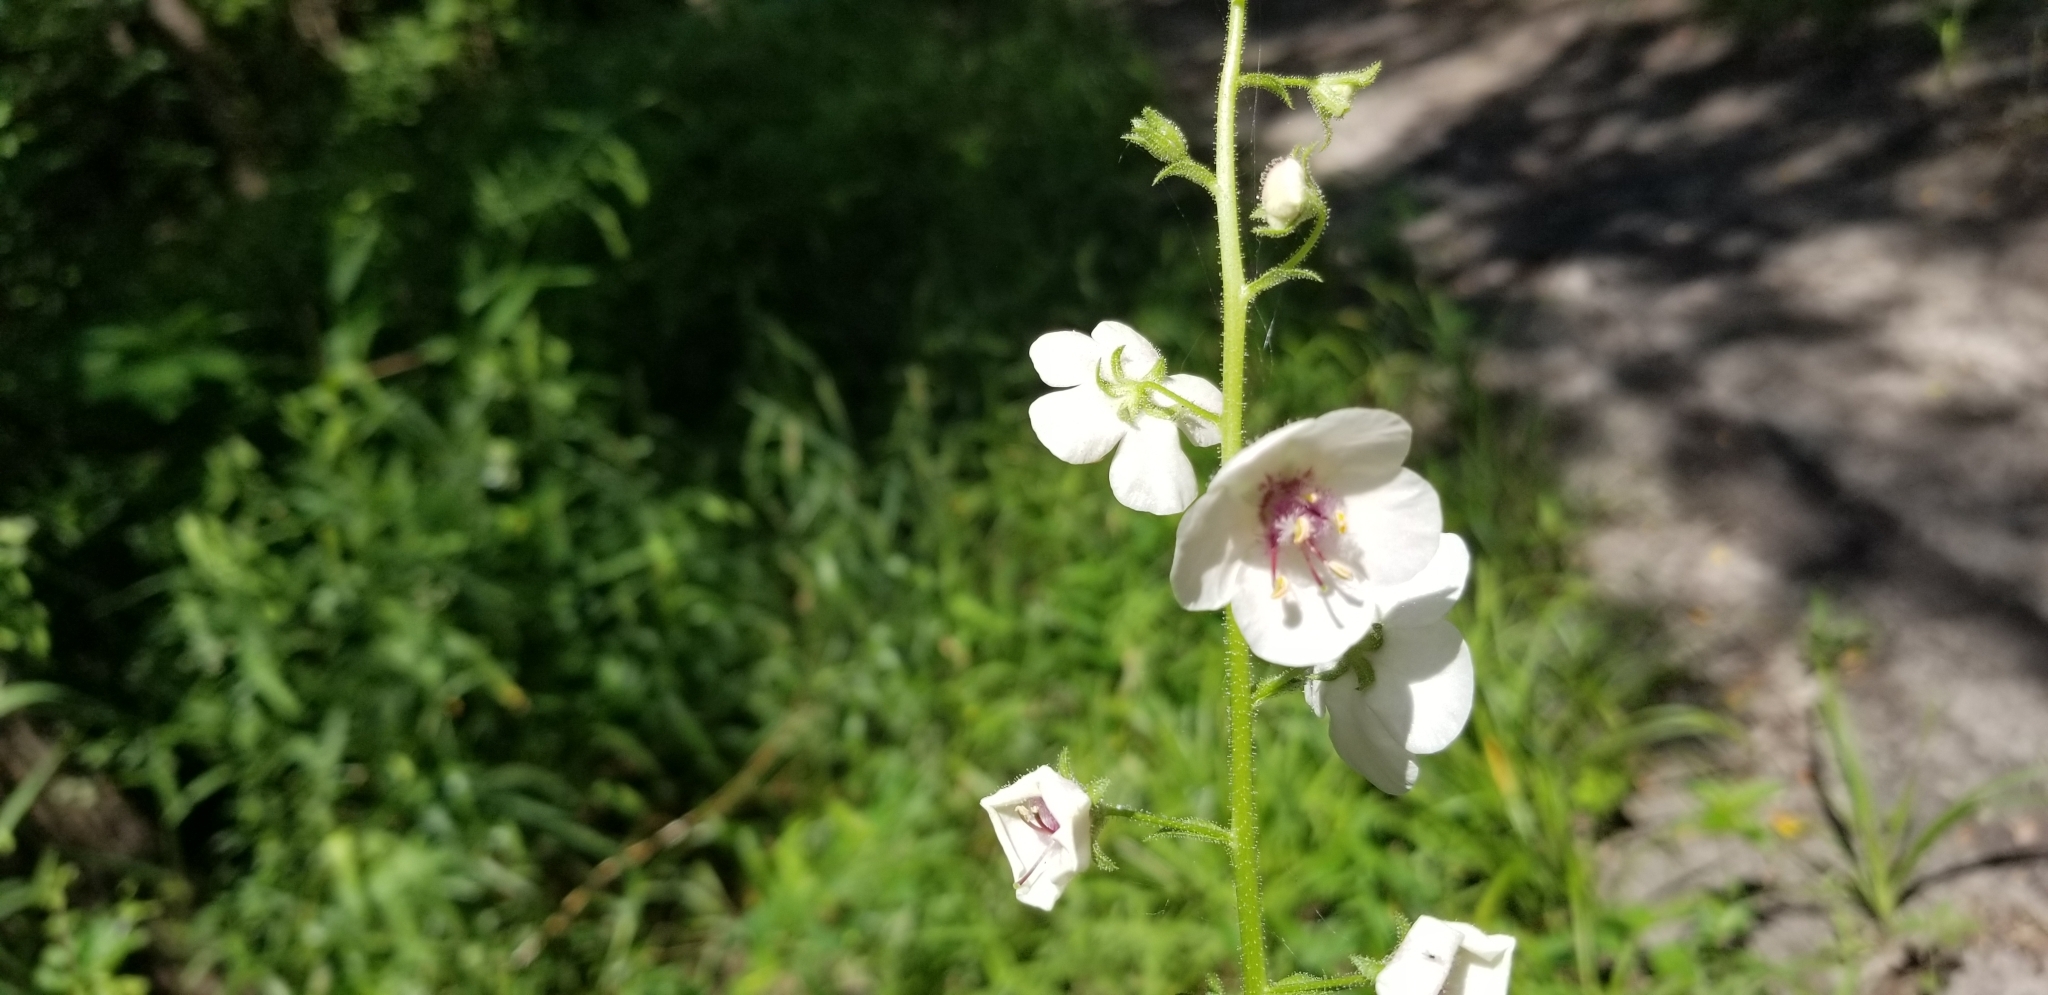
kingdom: Plantae
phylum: Tracheophyta
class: Magnoliopsida
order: Lamiales
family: Scrophulariaceae
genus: Verbascum
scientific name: Verbascum blattaria
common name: Moth mullein
